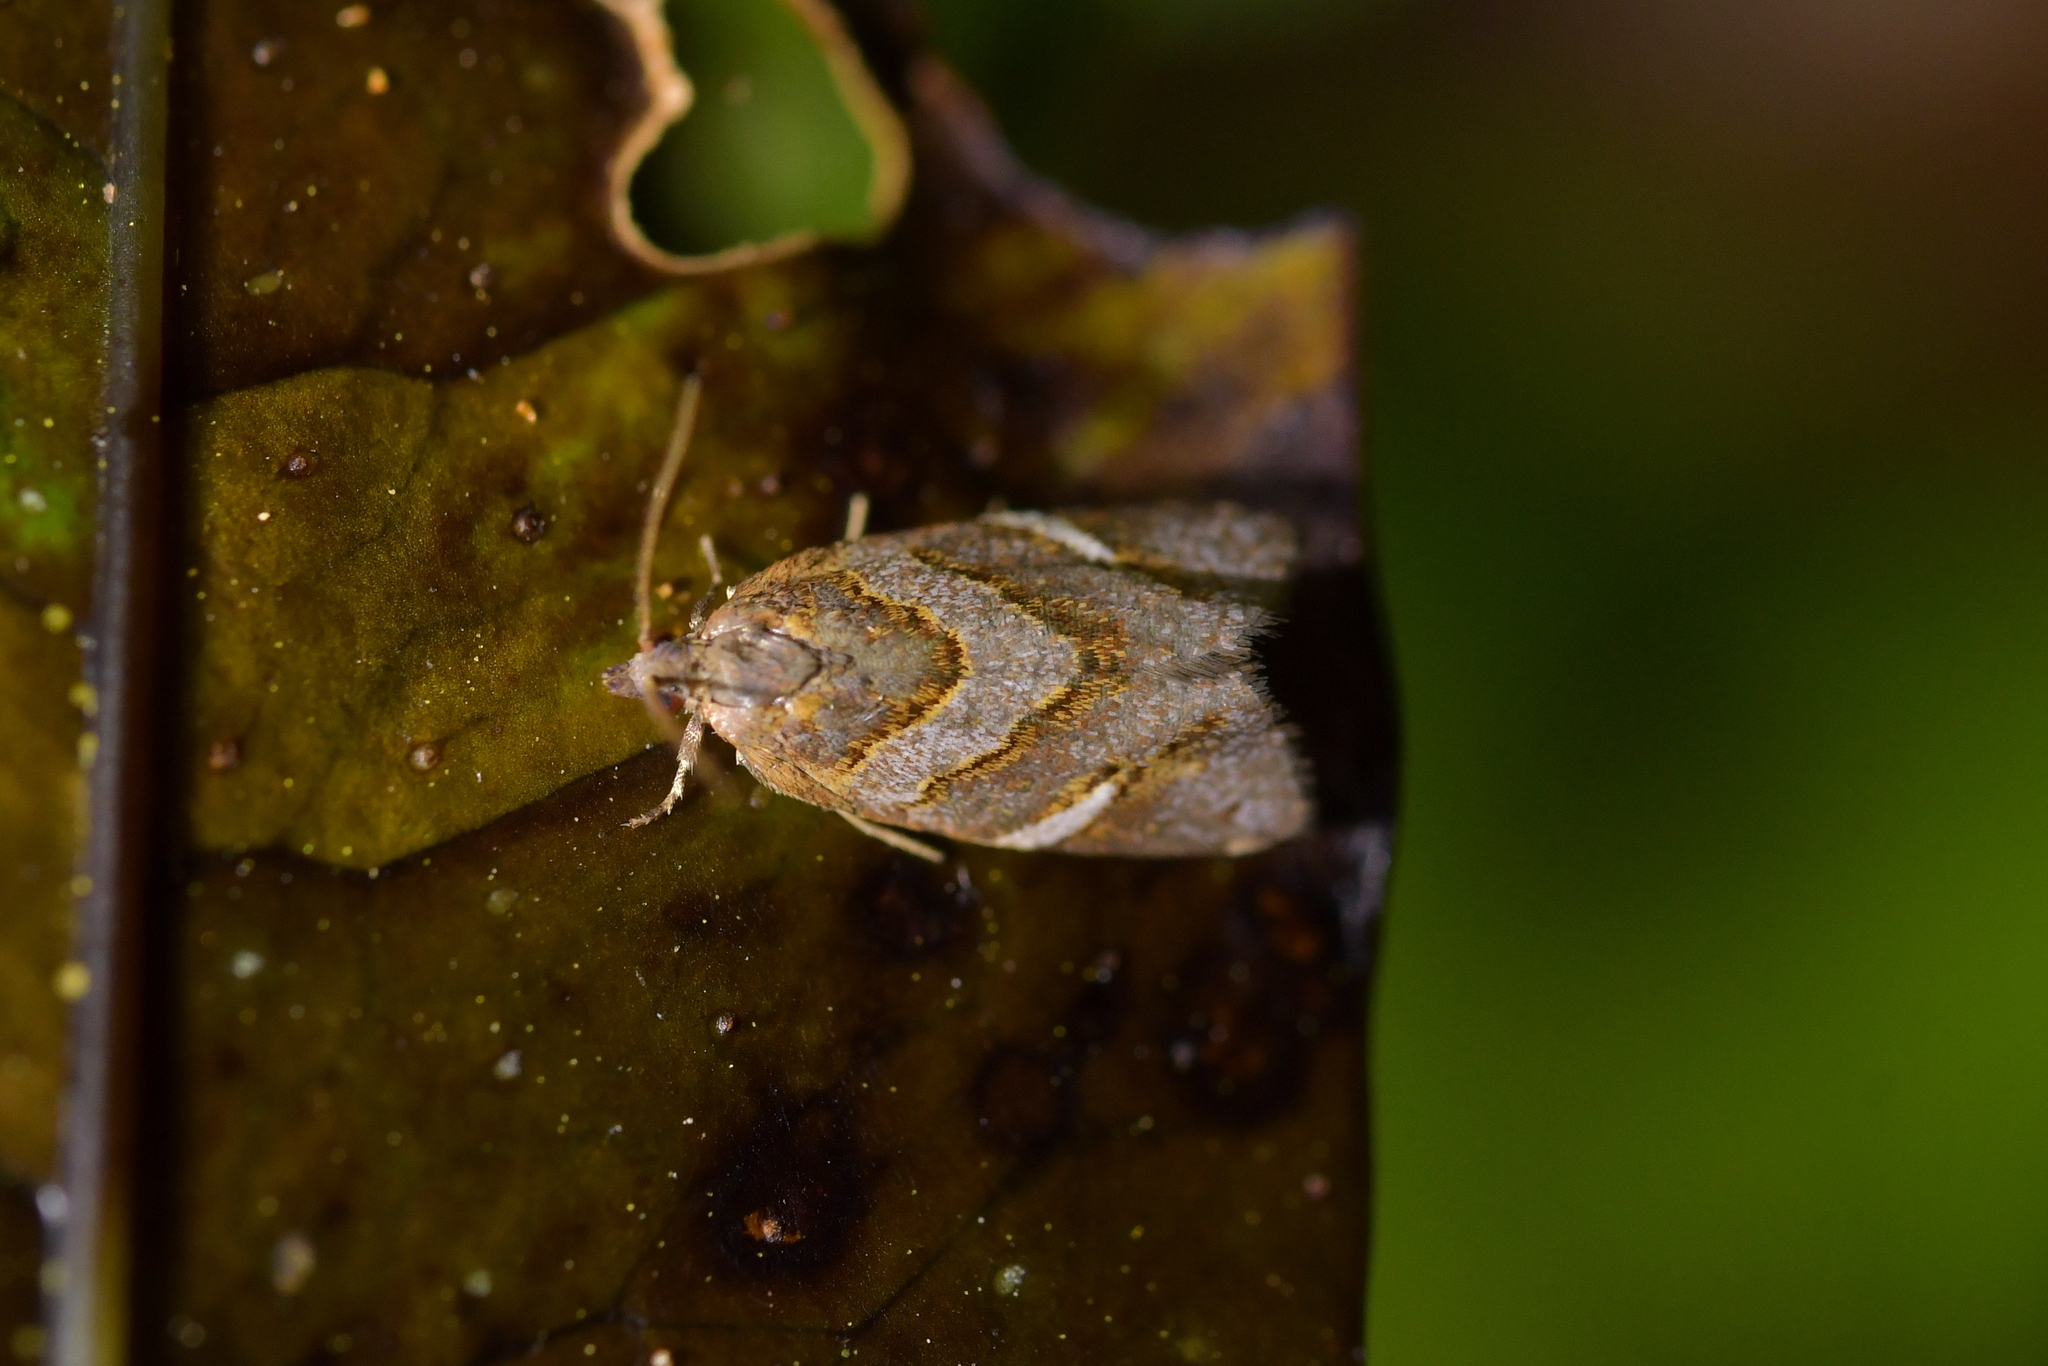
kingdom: Animalia
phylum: Arthropoda
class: Insecta
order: Lepidoptera
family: Tortricidae
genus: Ecclitica
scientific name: Ecclitica torogramma
